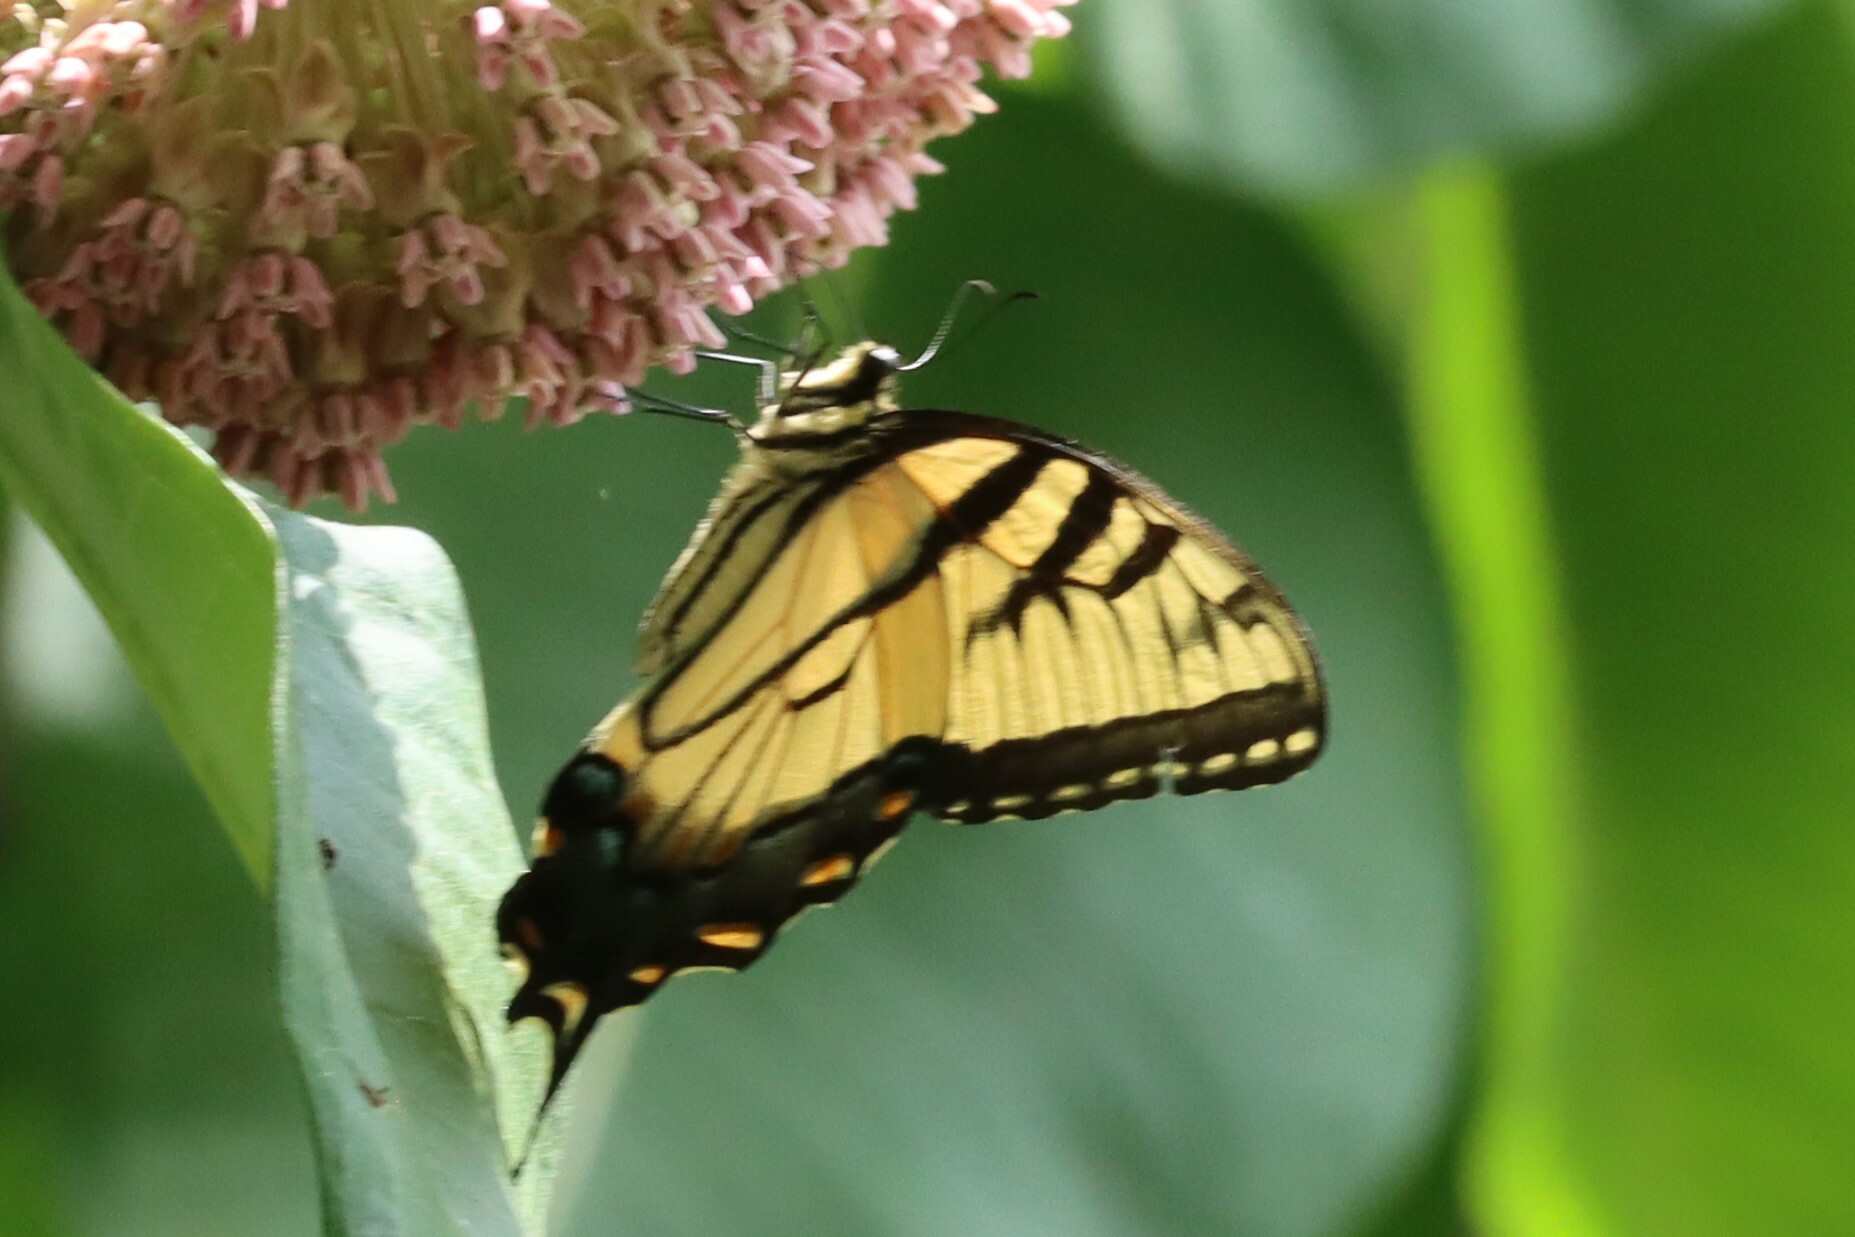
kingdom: Animalia
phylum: Arthropoda
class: Insecta
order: Lepidoptera
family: Papilionidae
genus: Papilio
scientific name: Papilio glaucus
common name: Tiger swallowtail
